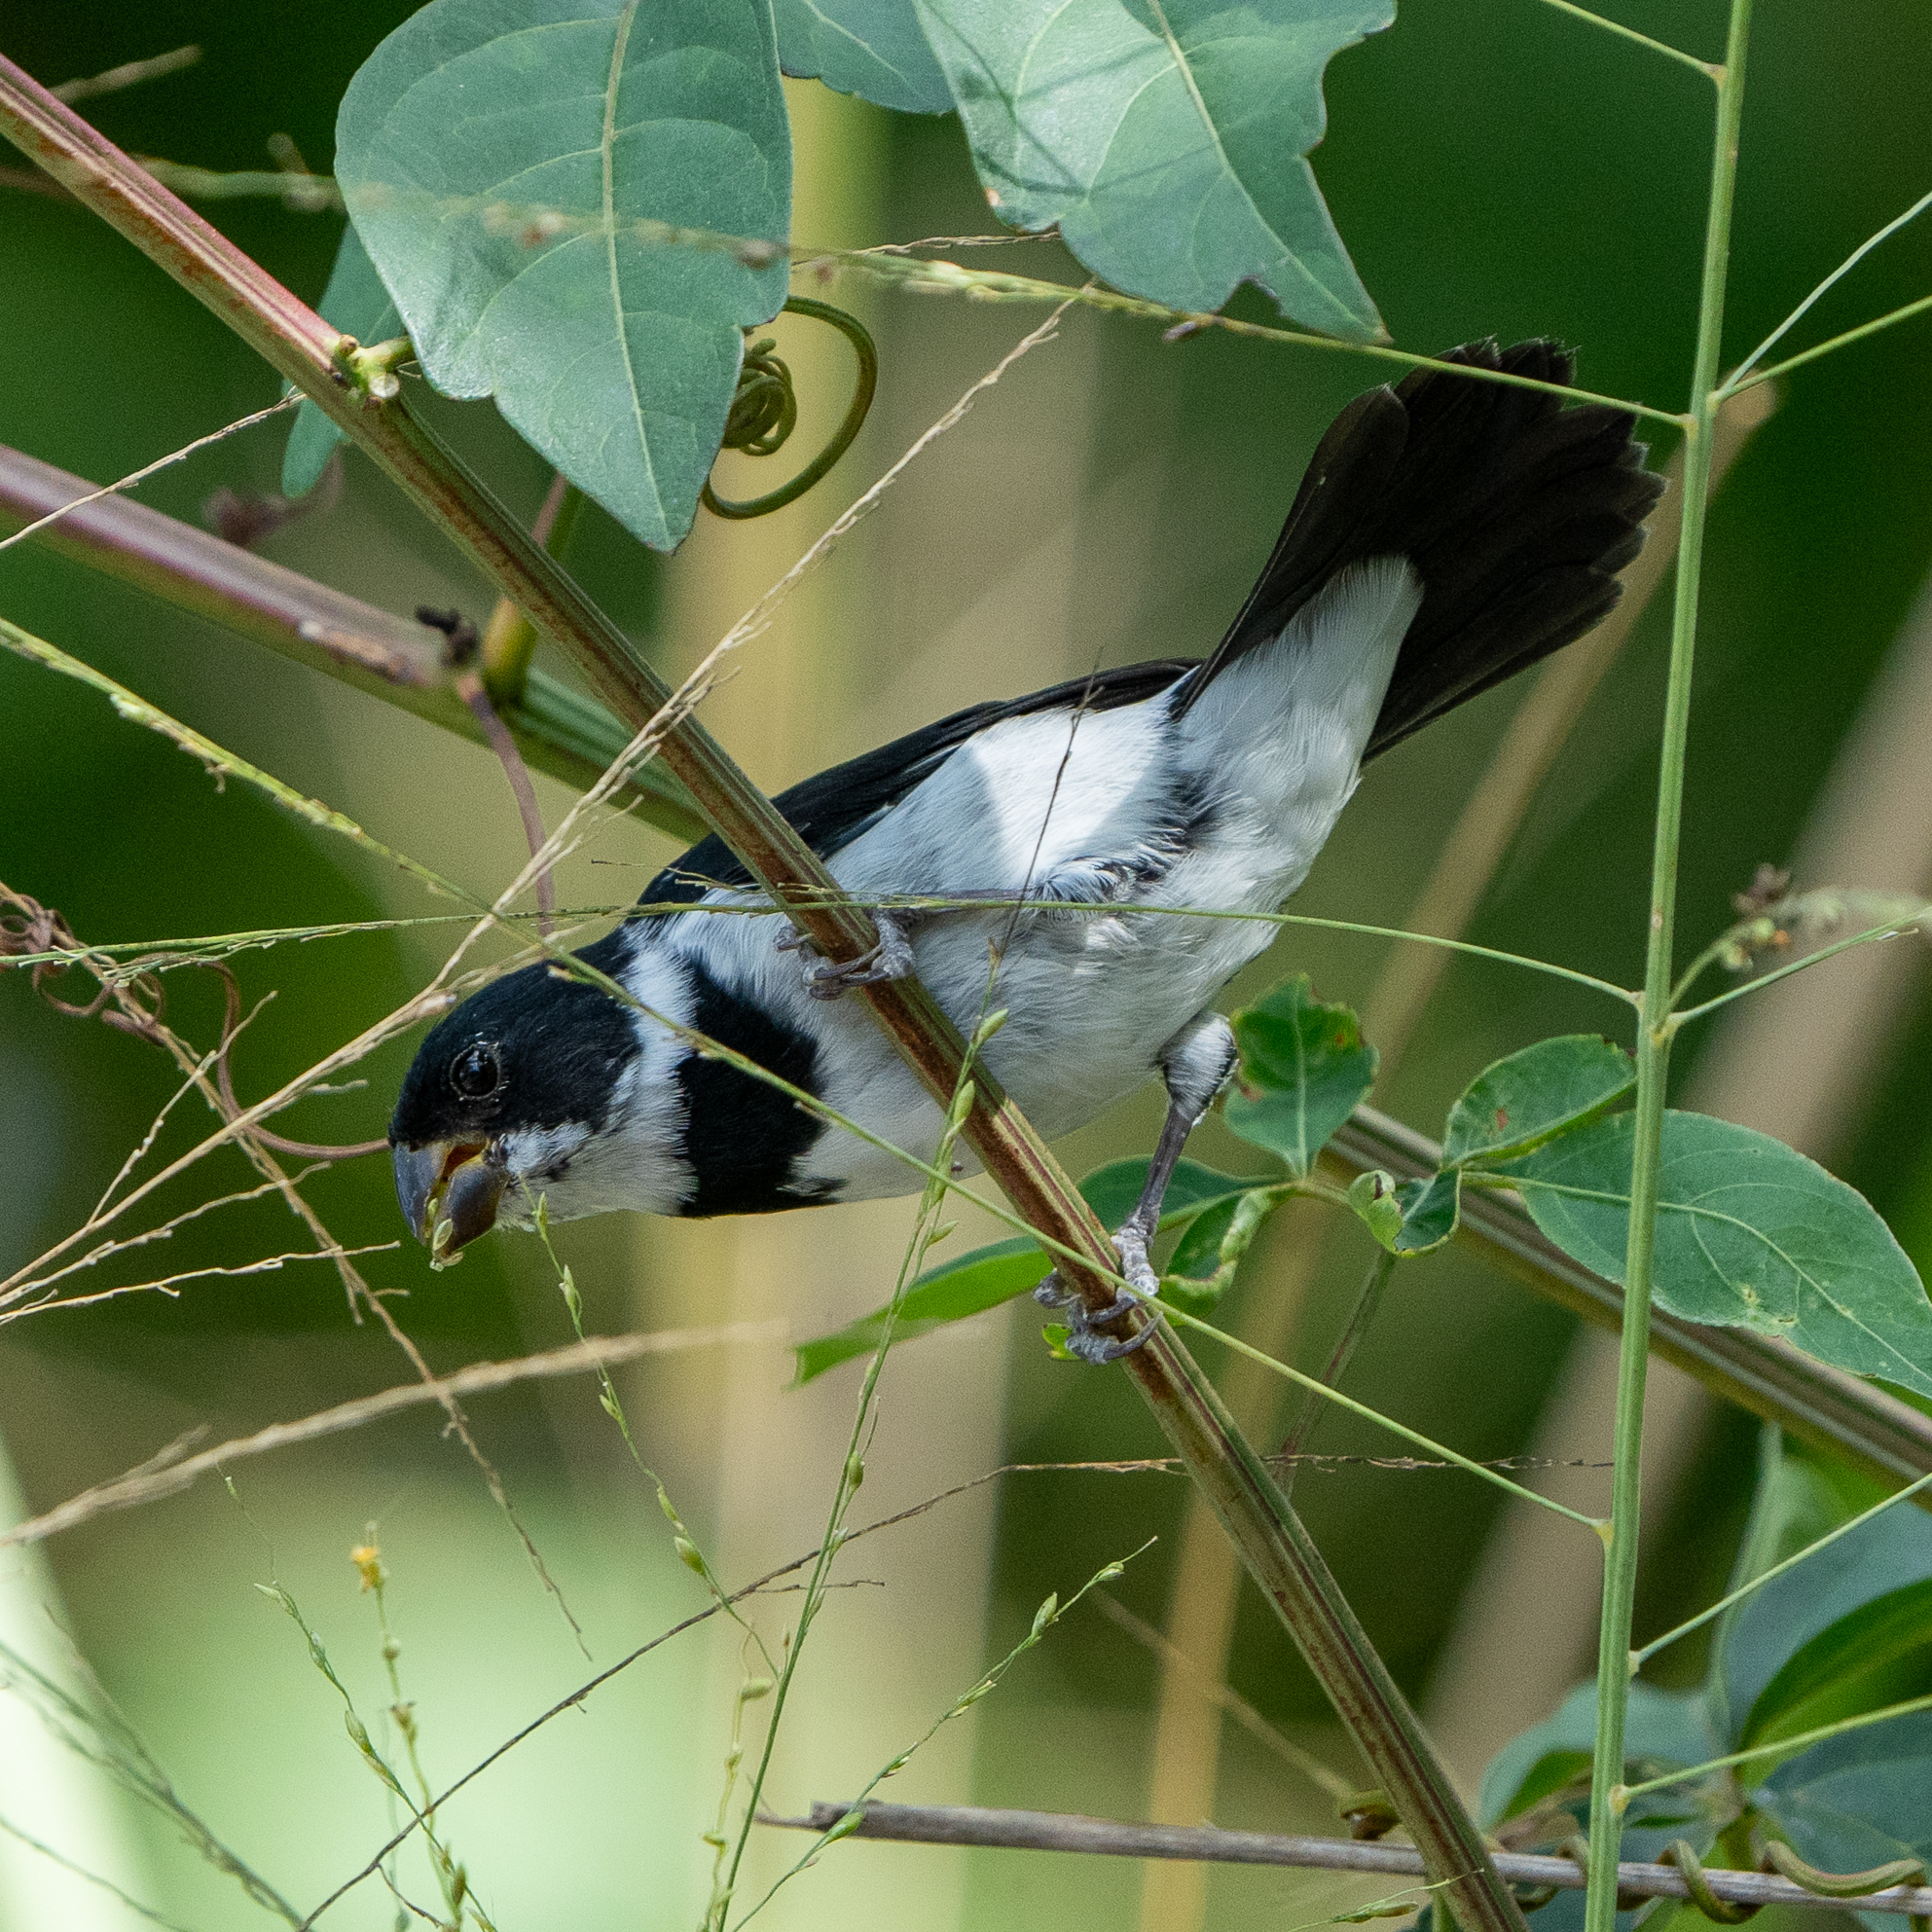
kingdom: Animalia
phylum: Chordata
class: Aves
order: Passeriformes
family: Thraupidae
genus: Sporophila
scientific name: Sporophila corvina
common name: Variable seedeater
